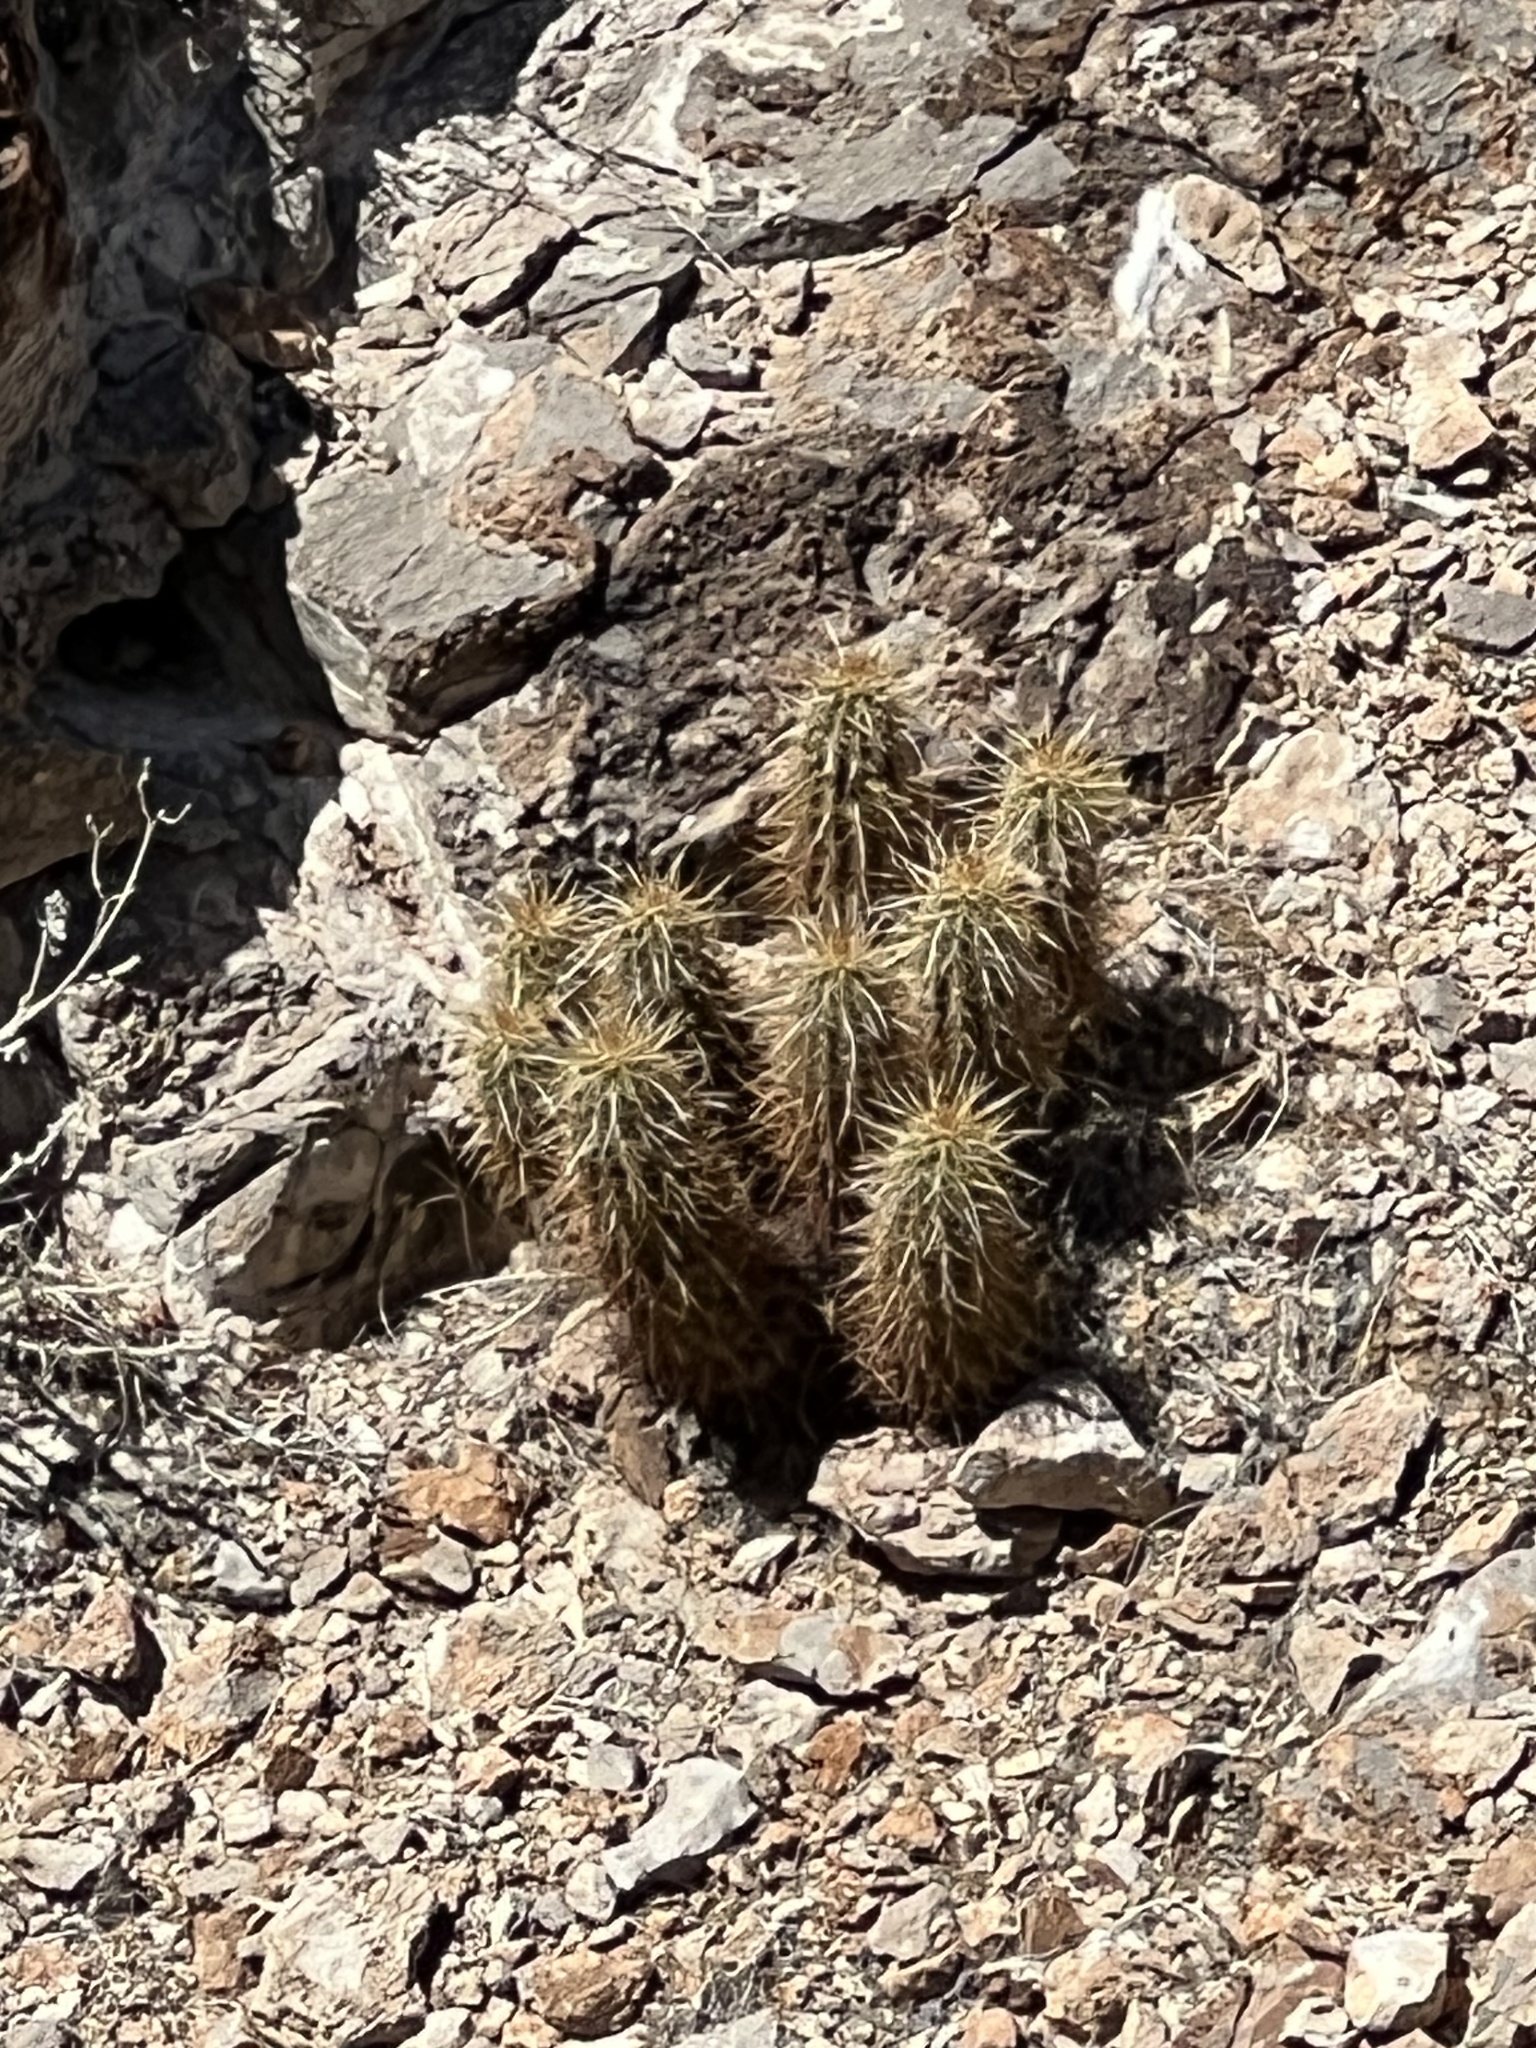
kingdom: Plantae
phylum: Tracheophyta
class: Magnoliopsida
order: Caryophyllales
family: Cactaceae
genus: Echinocereus
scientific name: Echinocereus engelmannii
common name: Engelmann's hedgehog cactus
